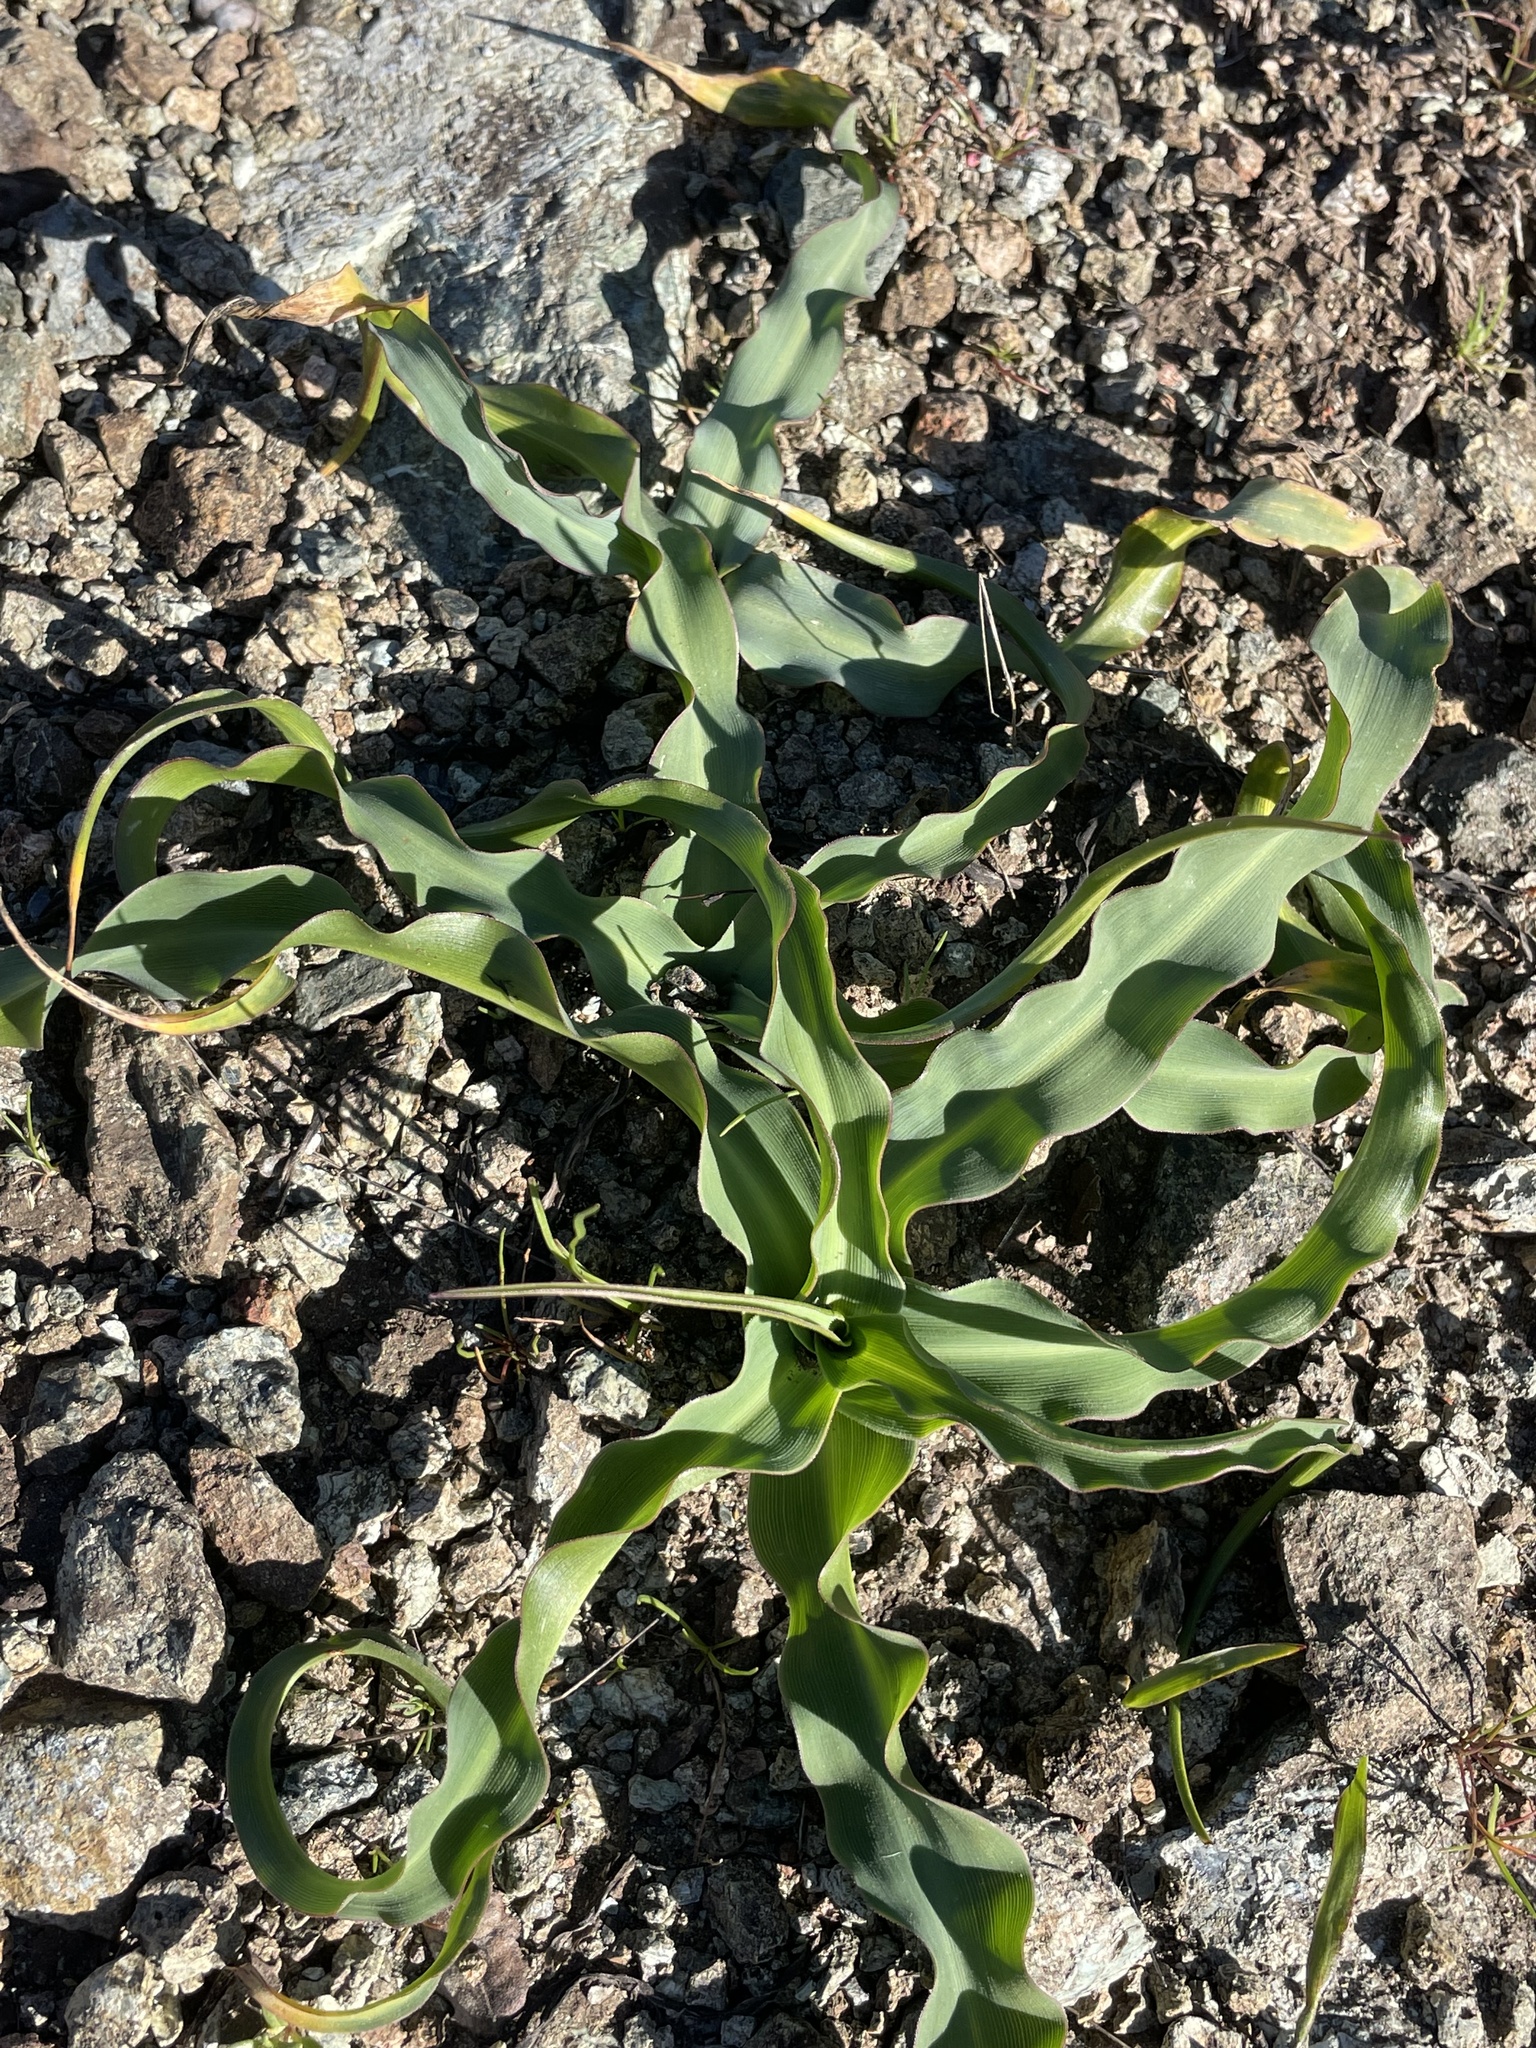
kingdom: Plantae
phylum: Tracheophyta
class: Liliopsida
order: Asparagales
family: Asparagaceae
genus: Chlorogalum
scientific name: Chlorogalum pomeridianum
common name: Amole
